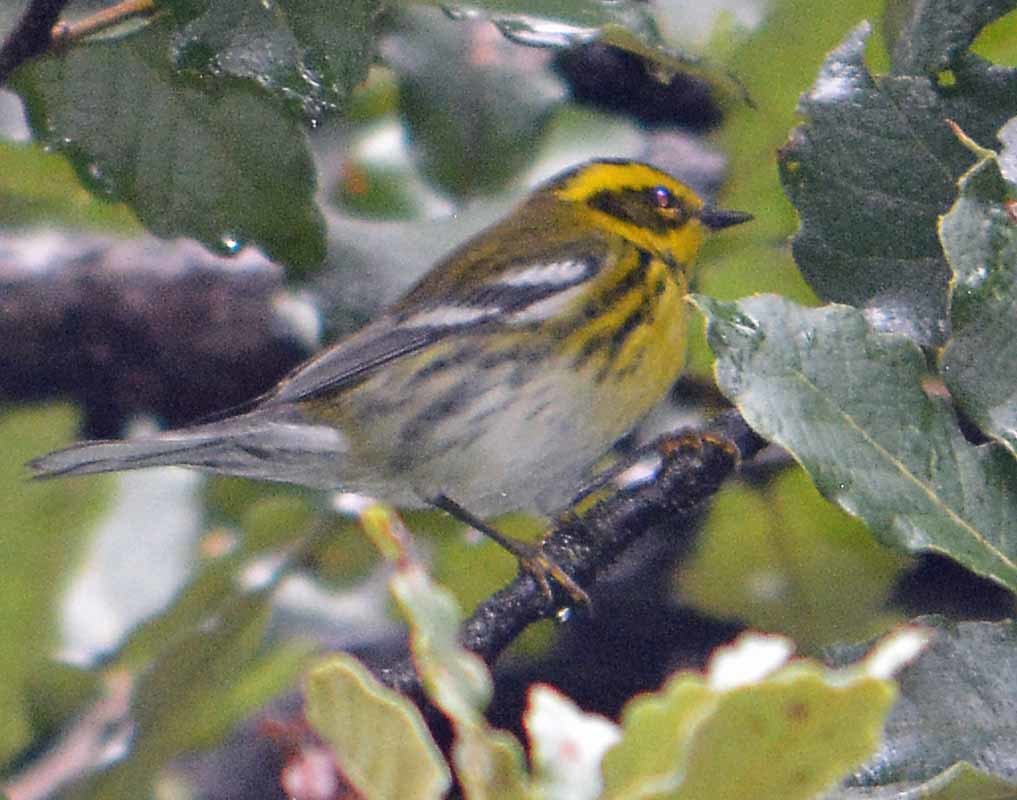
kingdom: Animalia
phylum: Chordata
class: Aves
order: Passeriformes
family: Parulidae
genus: Setophaga
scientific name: Setophaga townsendi
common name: Townsend's warbler
